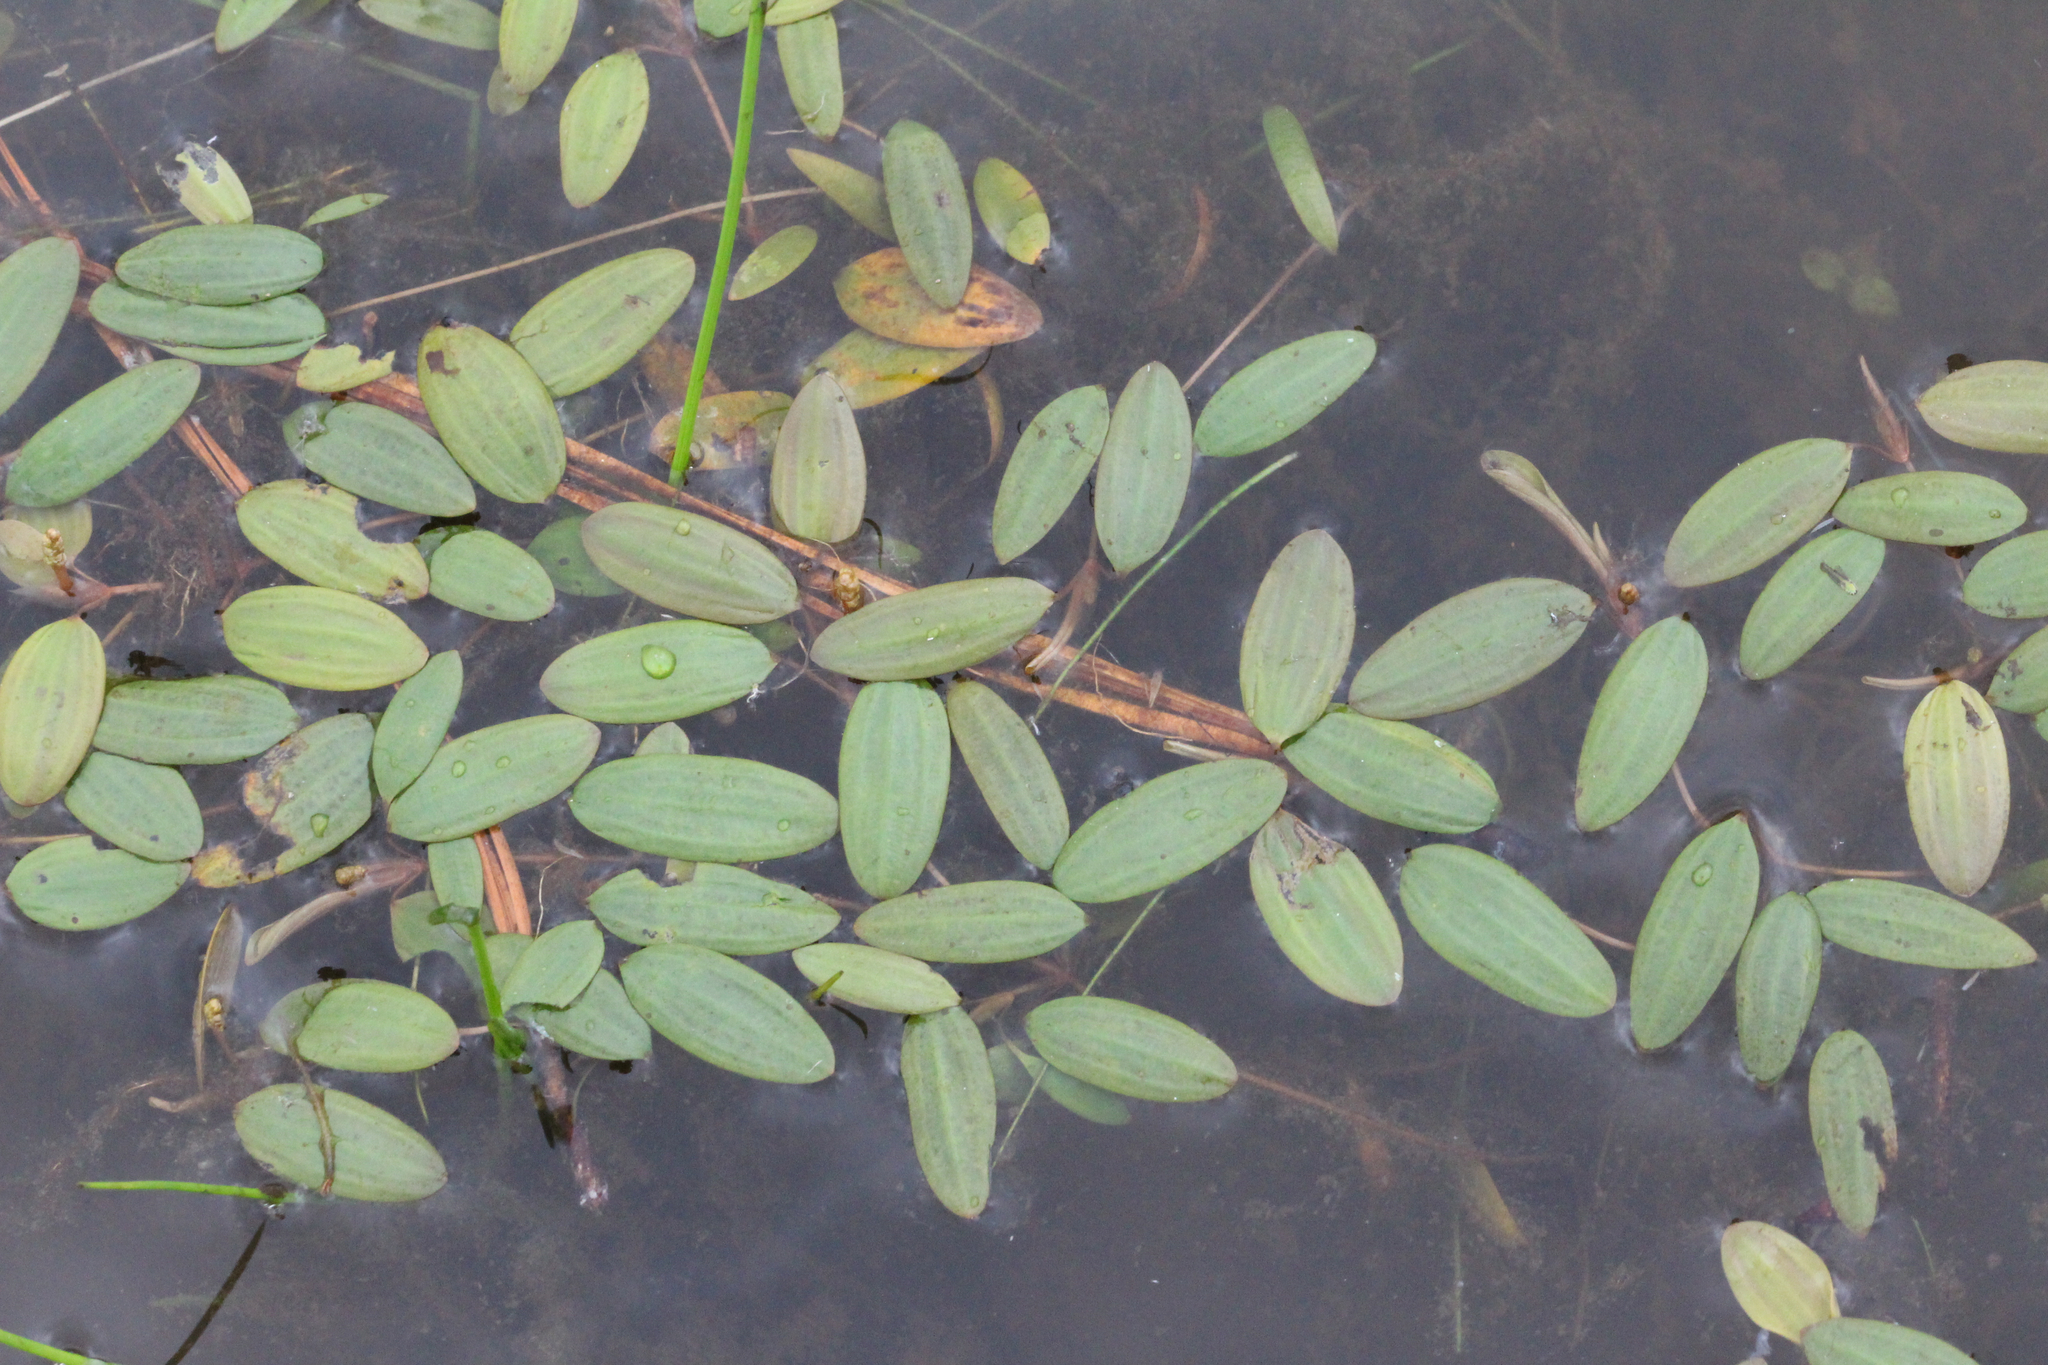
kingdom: Plantae
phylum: Tracheophyta
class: Liliopsida
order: Alismatales
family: Potamogetonaceae
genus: Potamogeton
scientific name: Potamogeton diversifolius
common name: Water-thread pondweed
